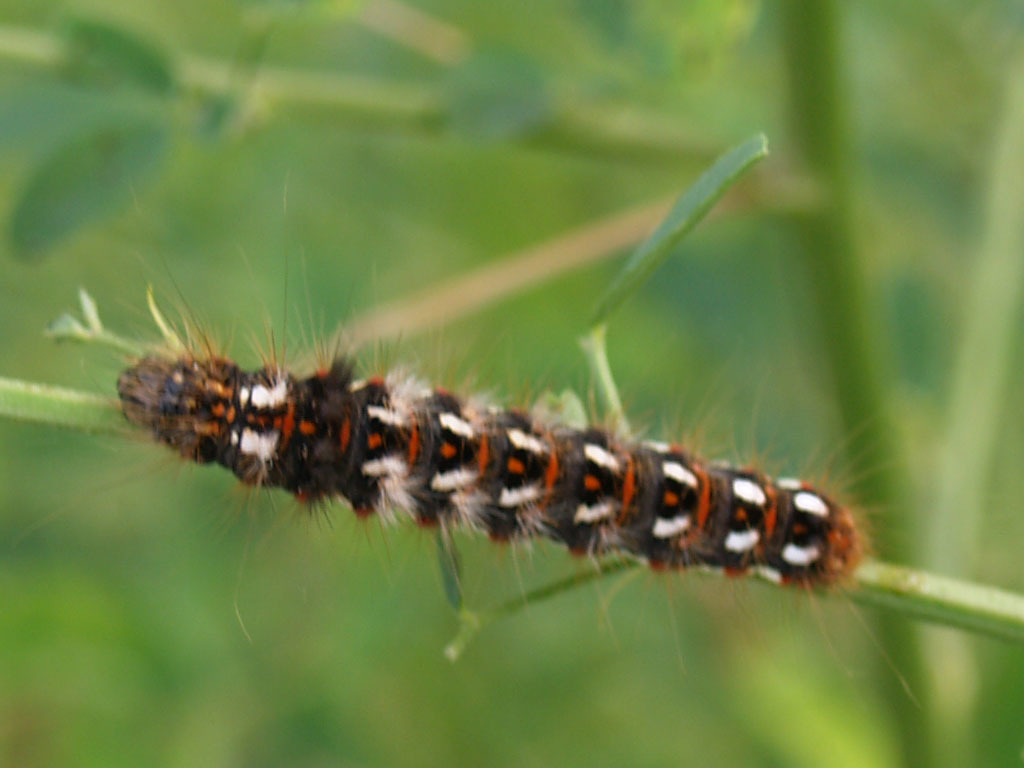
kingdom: Animalia
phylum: Arthropoda
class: Insecta
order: Lepidoptera
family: Noctuidae
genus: Acronicta
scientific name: Acronicta rumicis
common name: Knot grass
